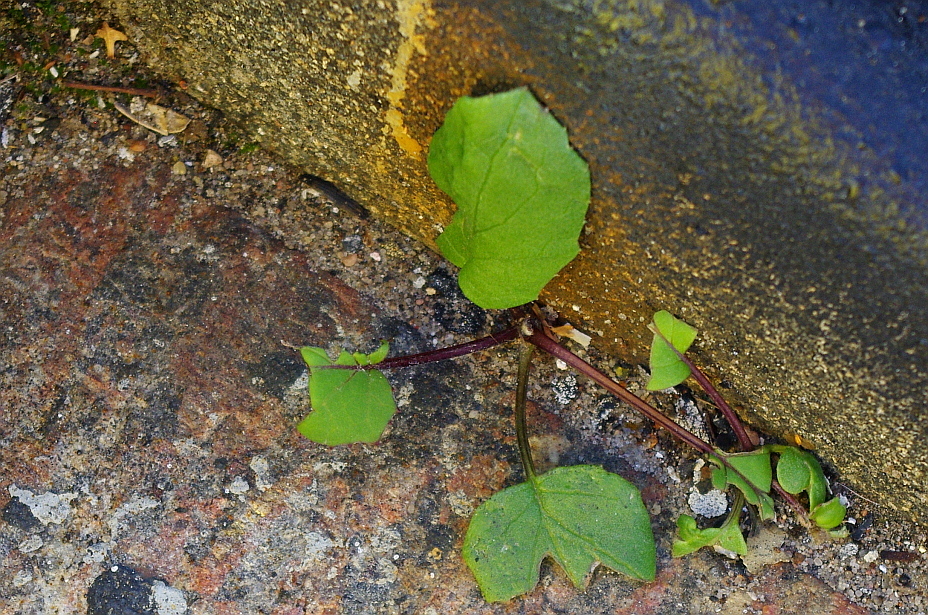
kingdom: Plantae
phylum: Tracheophyta
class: Magnoliopsida
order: Asterales
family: Asteraceae
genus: Tussilago
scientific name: Tussilago farfara
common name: Coltsfoot
